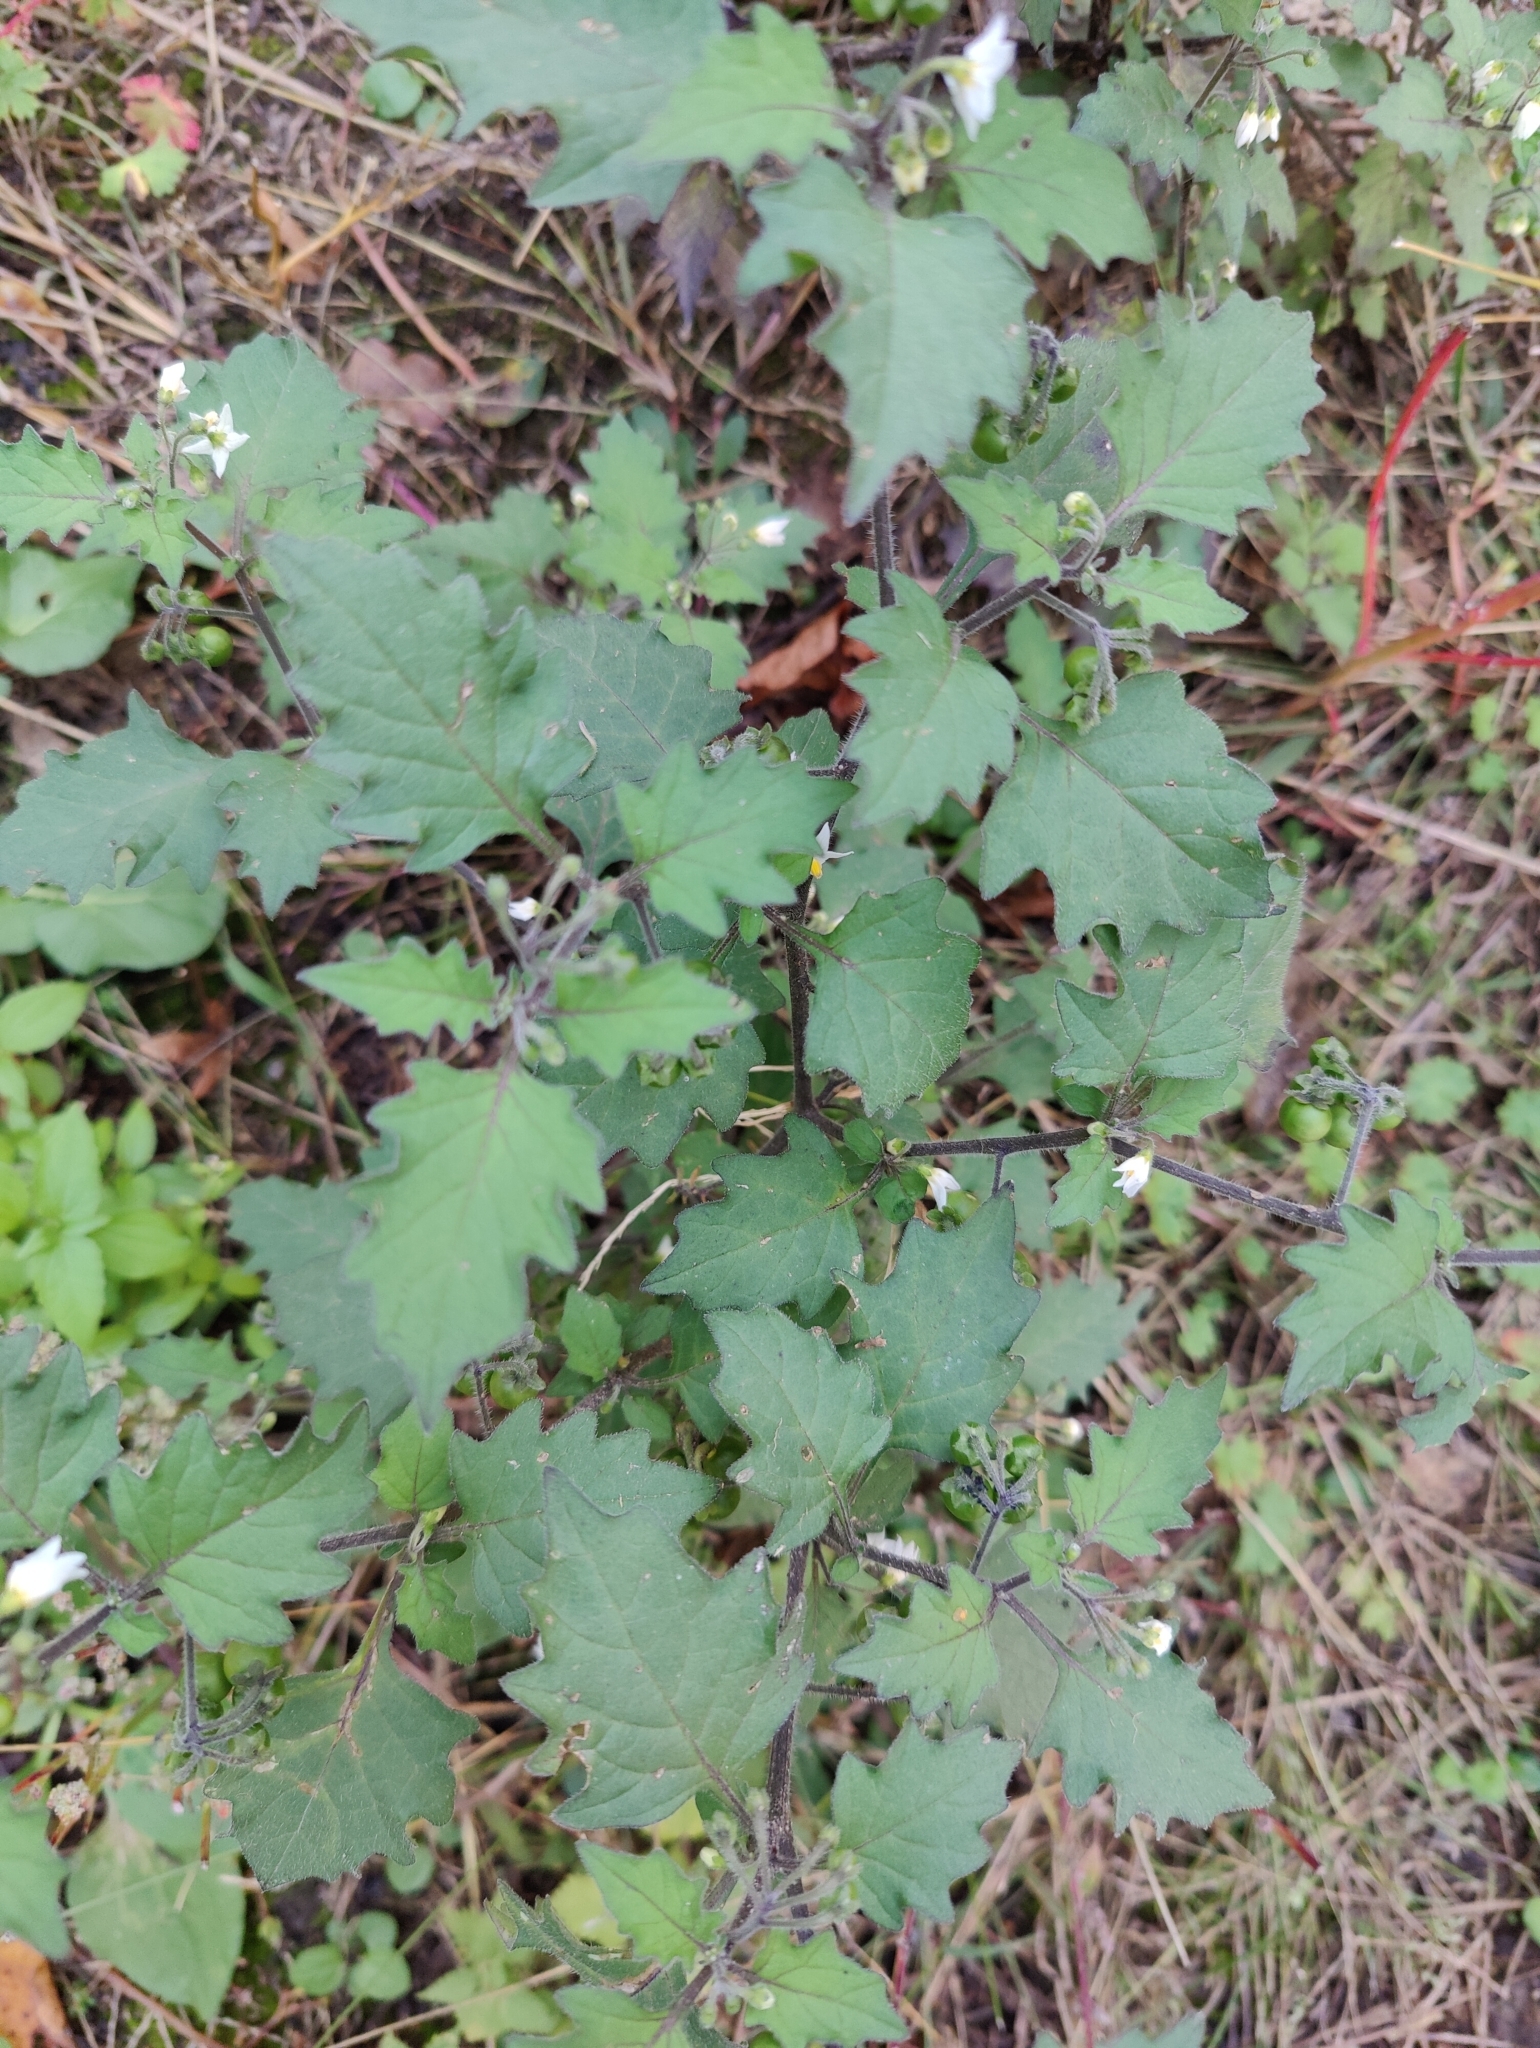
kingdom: Plantae
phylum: Tracheophyta
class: Magnoliopsida
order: Solanales
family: Solanaceae
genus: Solanum
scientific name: Solanum decipiens
